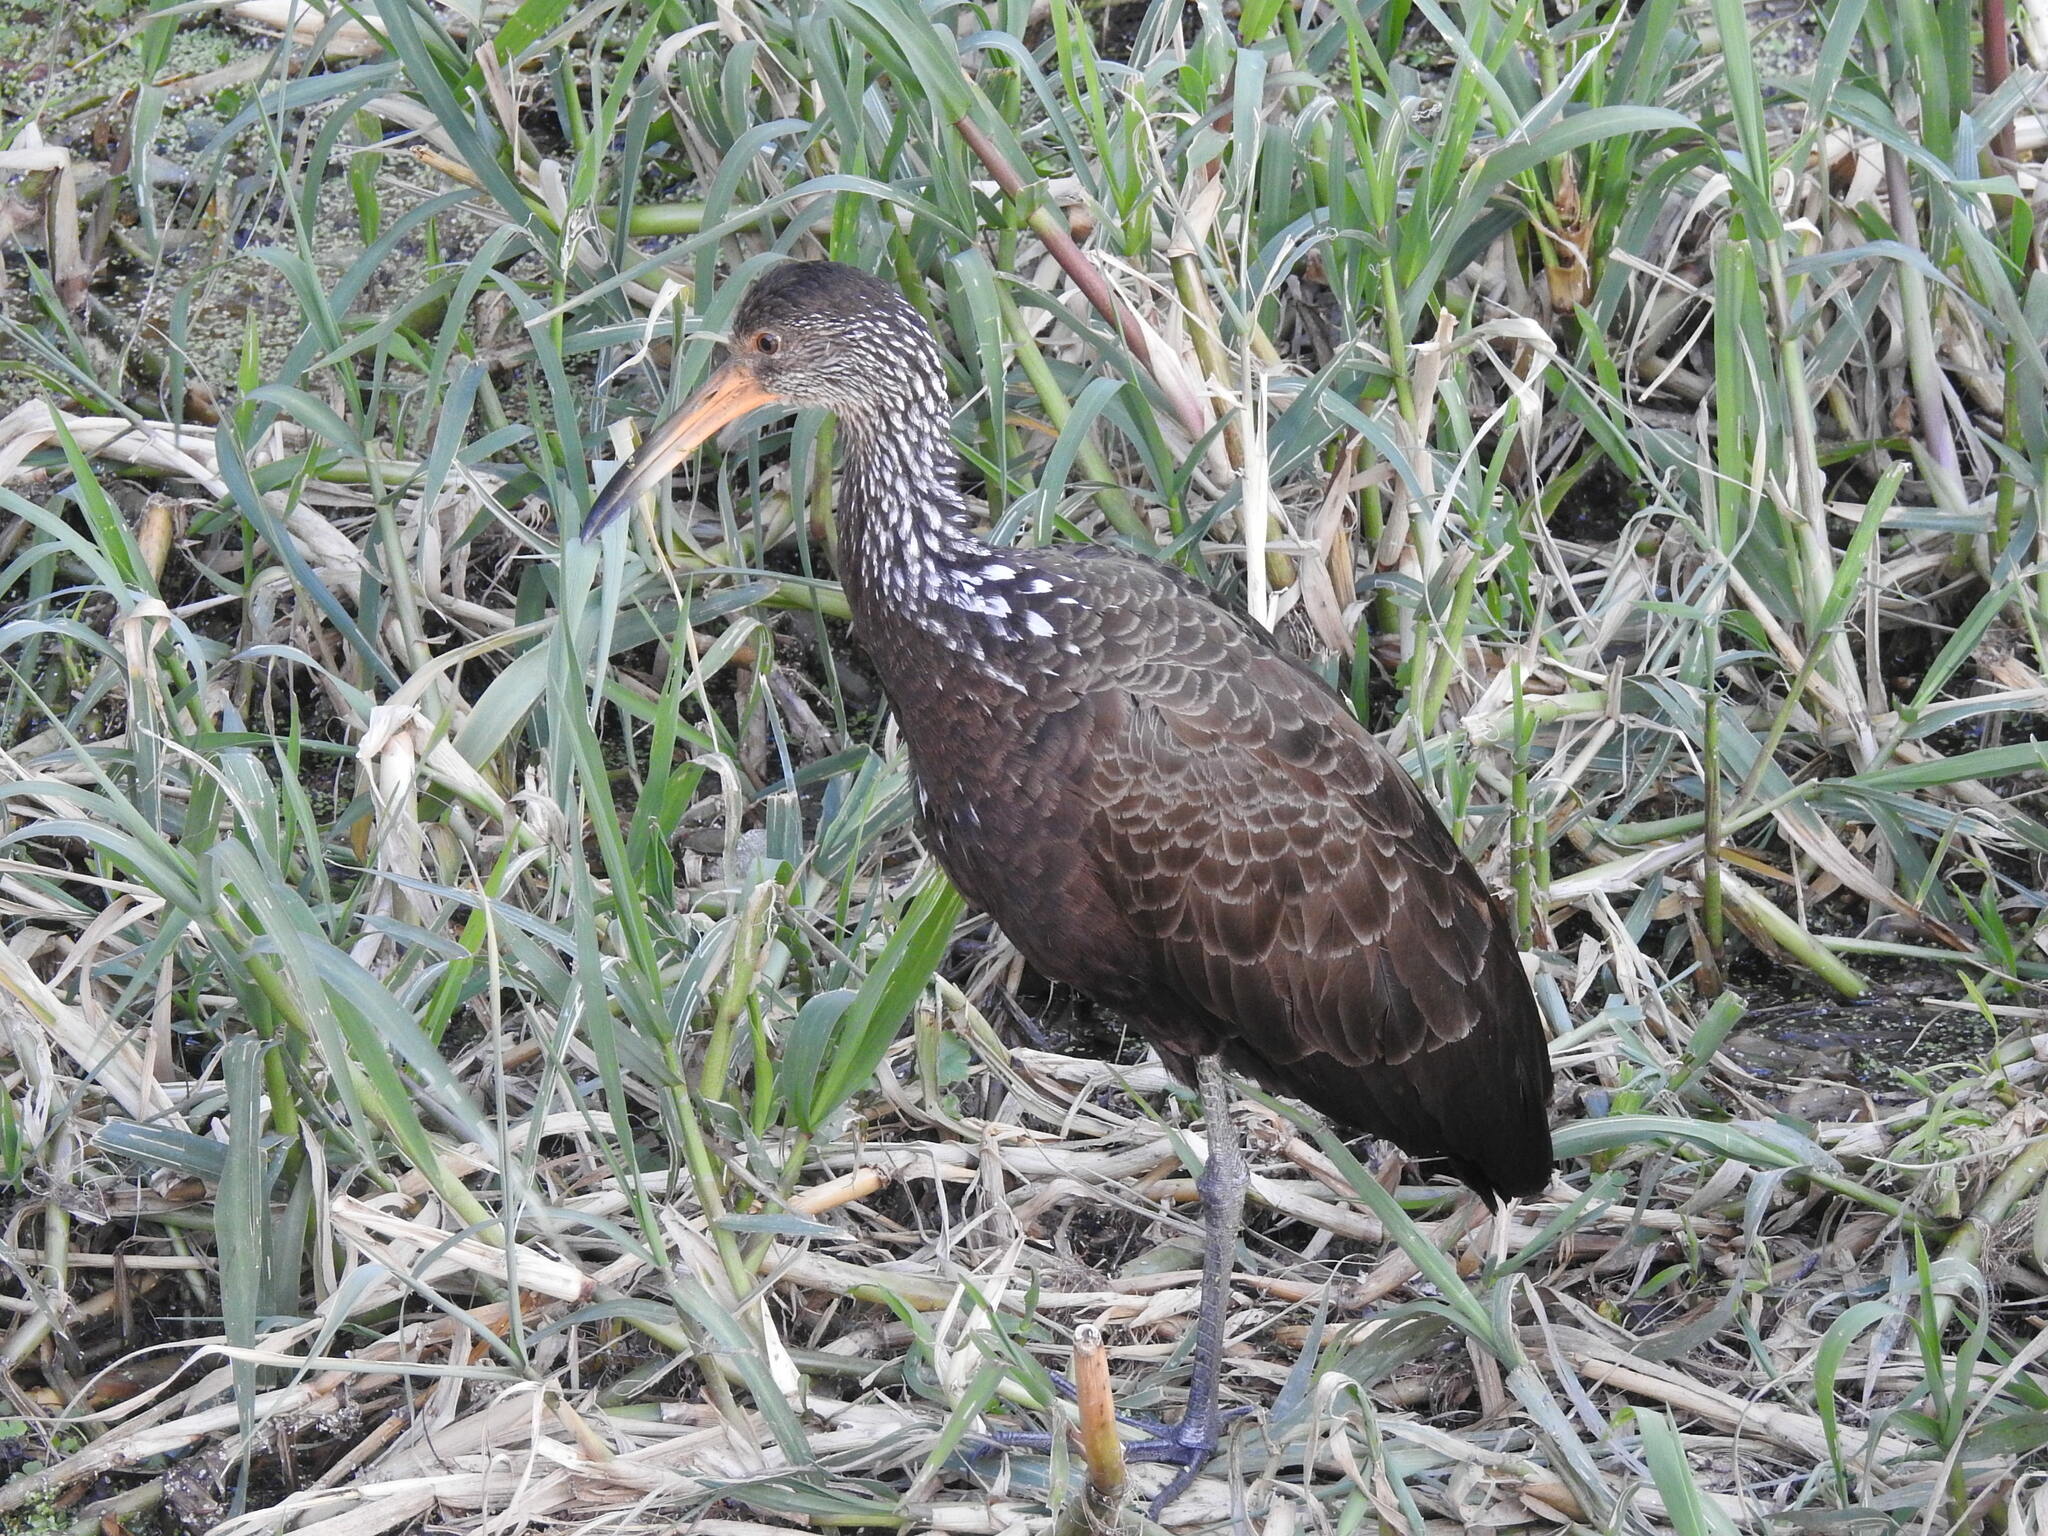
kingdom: Animalia
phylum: Chordata
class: Aves
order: Gruiformes
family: Aramidae
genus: Aramus
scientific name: Aramus guarauna
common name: Limpkin
